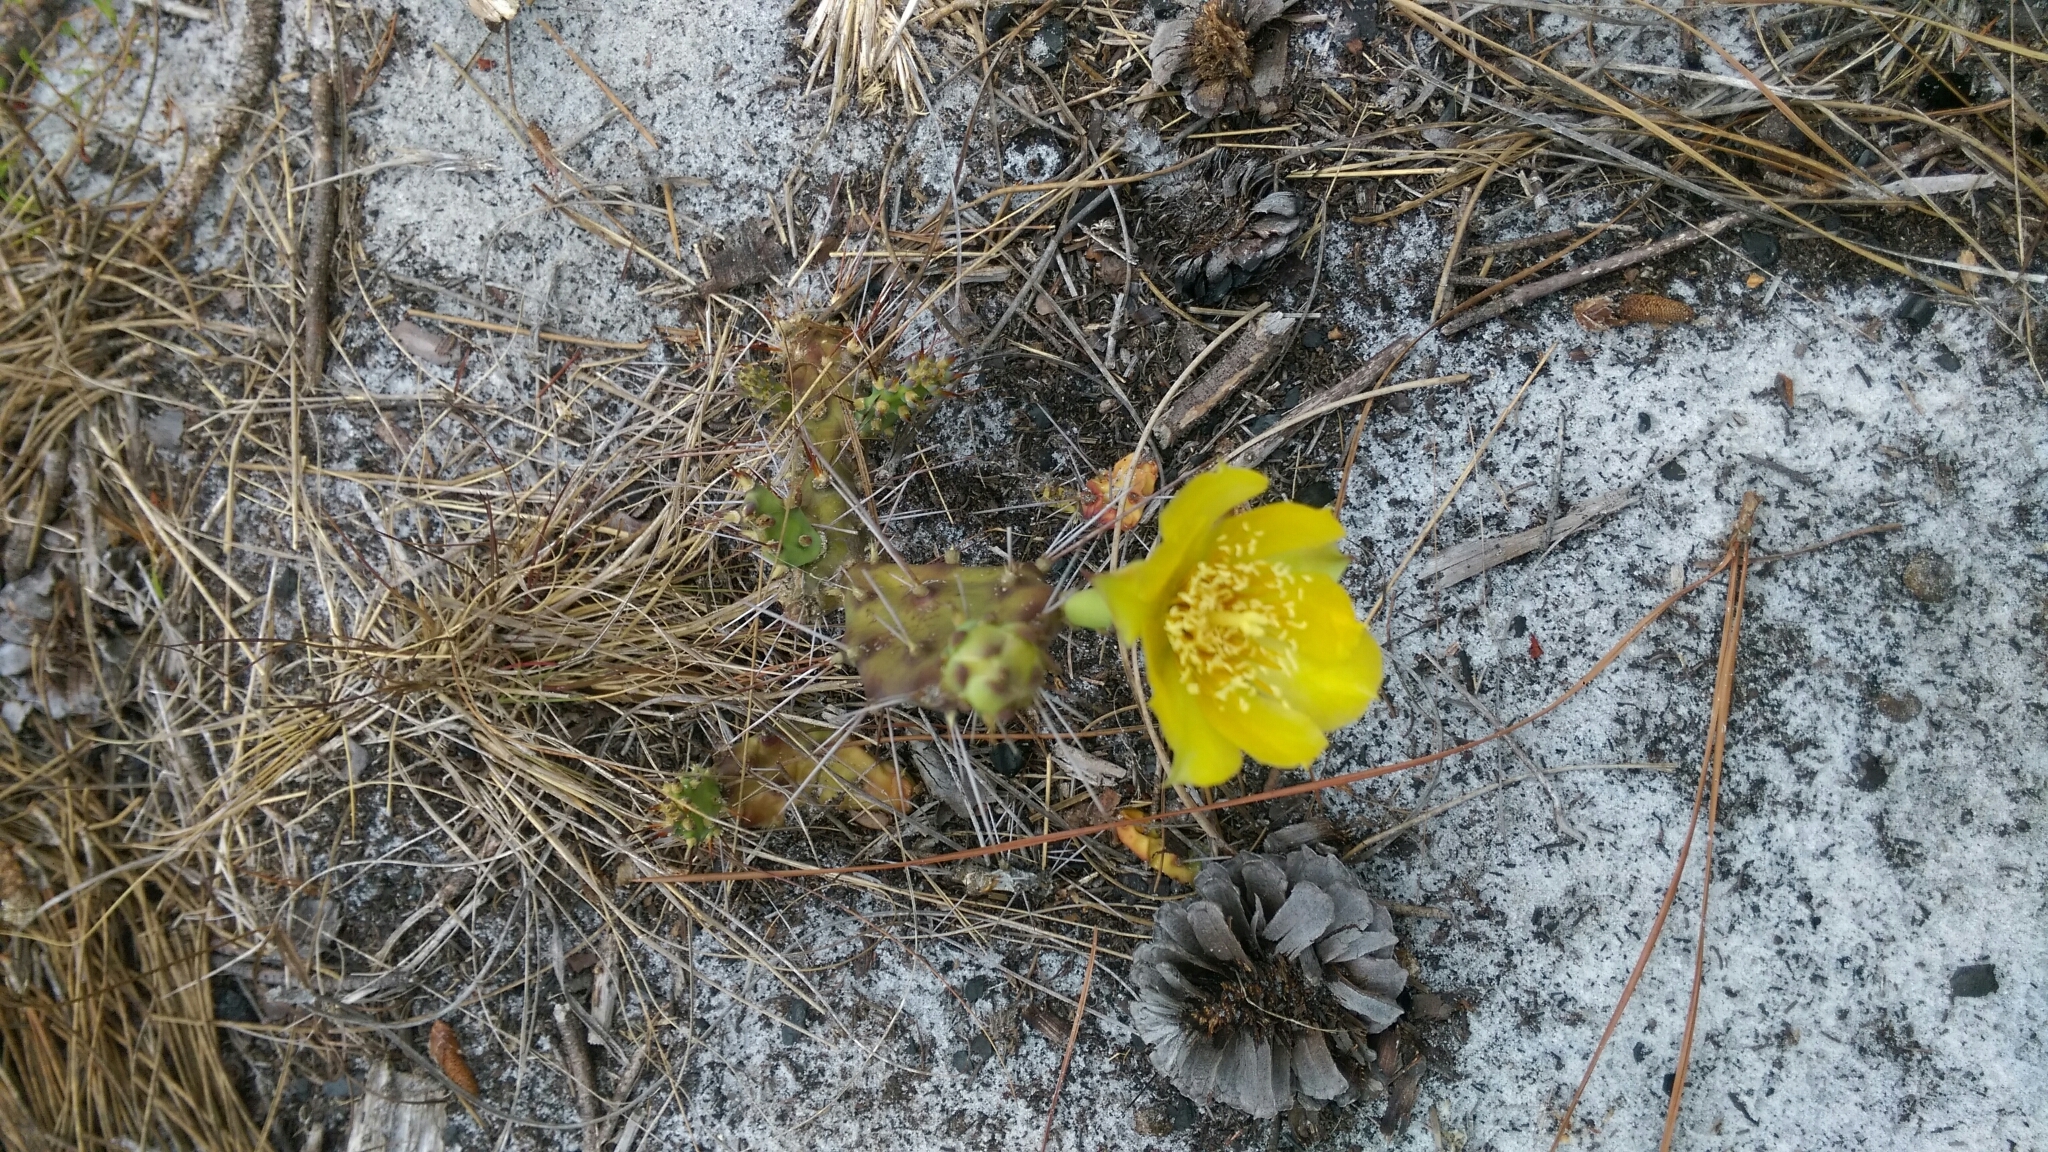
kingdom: Plantae
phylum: Tracheophyta
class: Magnoliopsida
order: Caryophyllales
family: Cactaceae
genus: Opuntia
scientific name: Opuntia austrina
